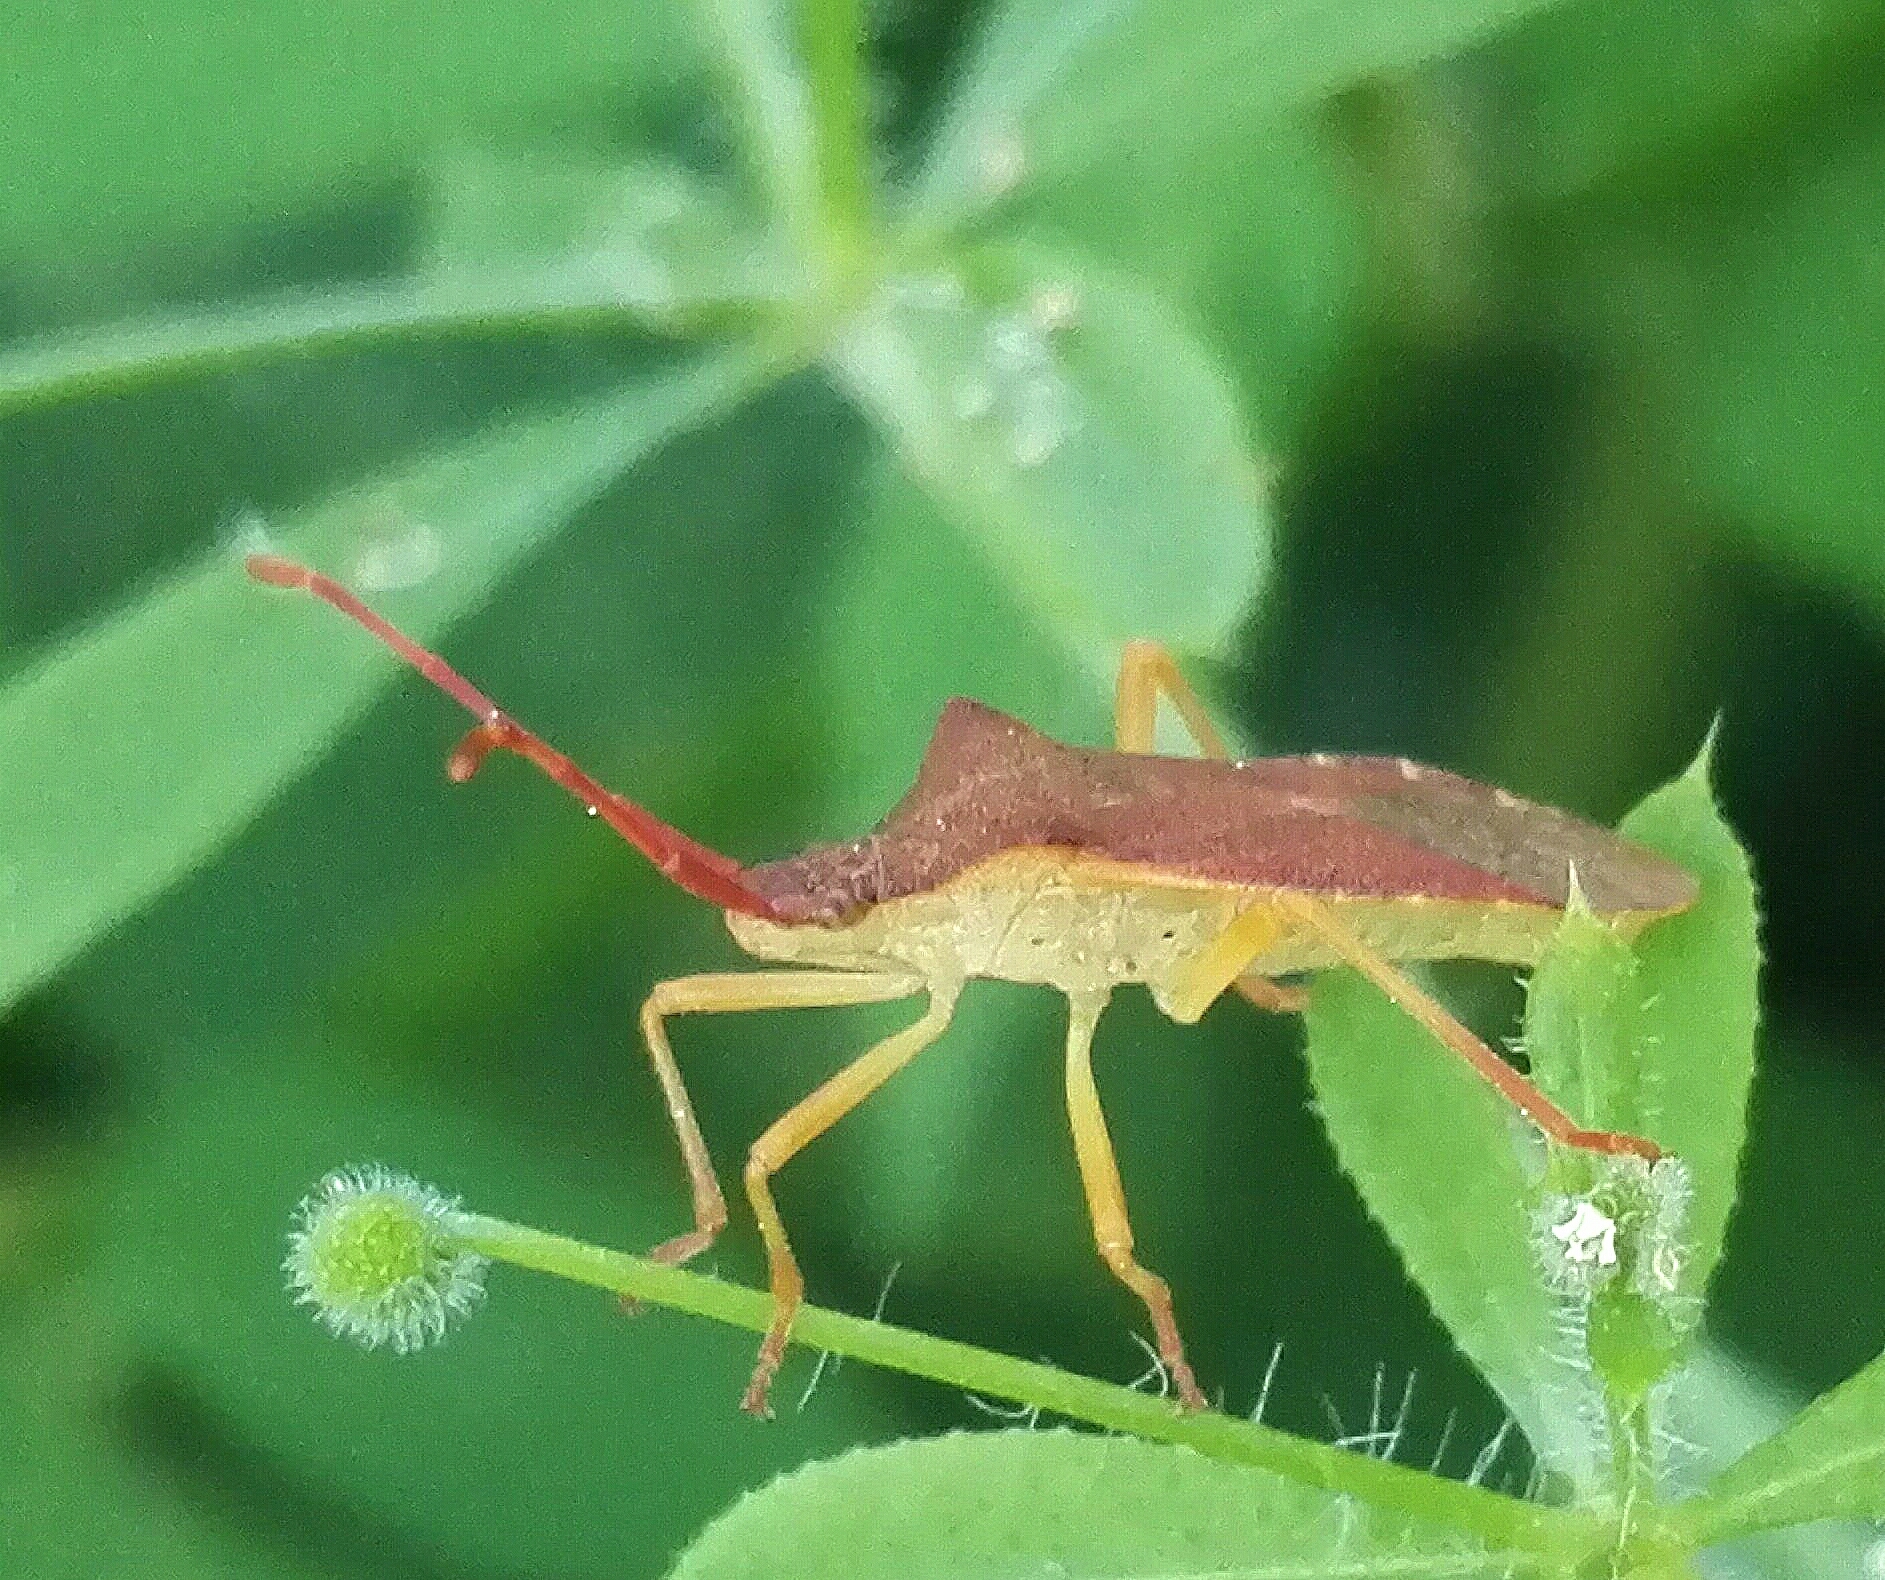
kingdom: Animalia
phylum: Arthropoda
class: Insecta
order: Hemiptera
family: Coreidae
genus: Gonocerus
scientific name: Gonocerus acuteangulatus
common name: Box bug
